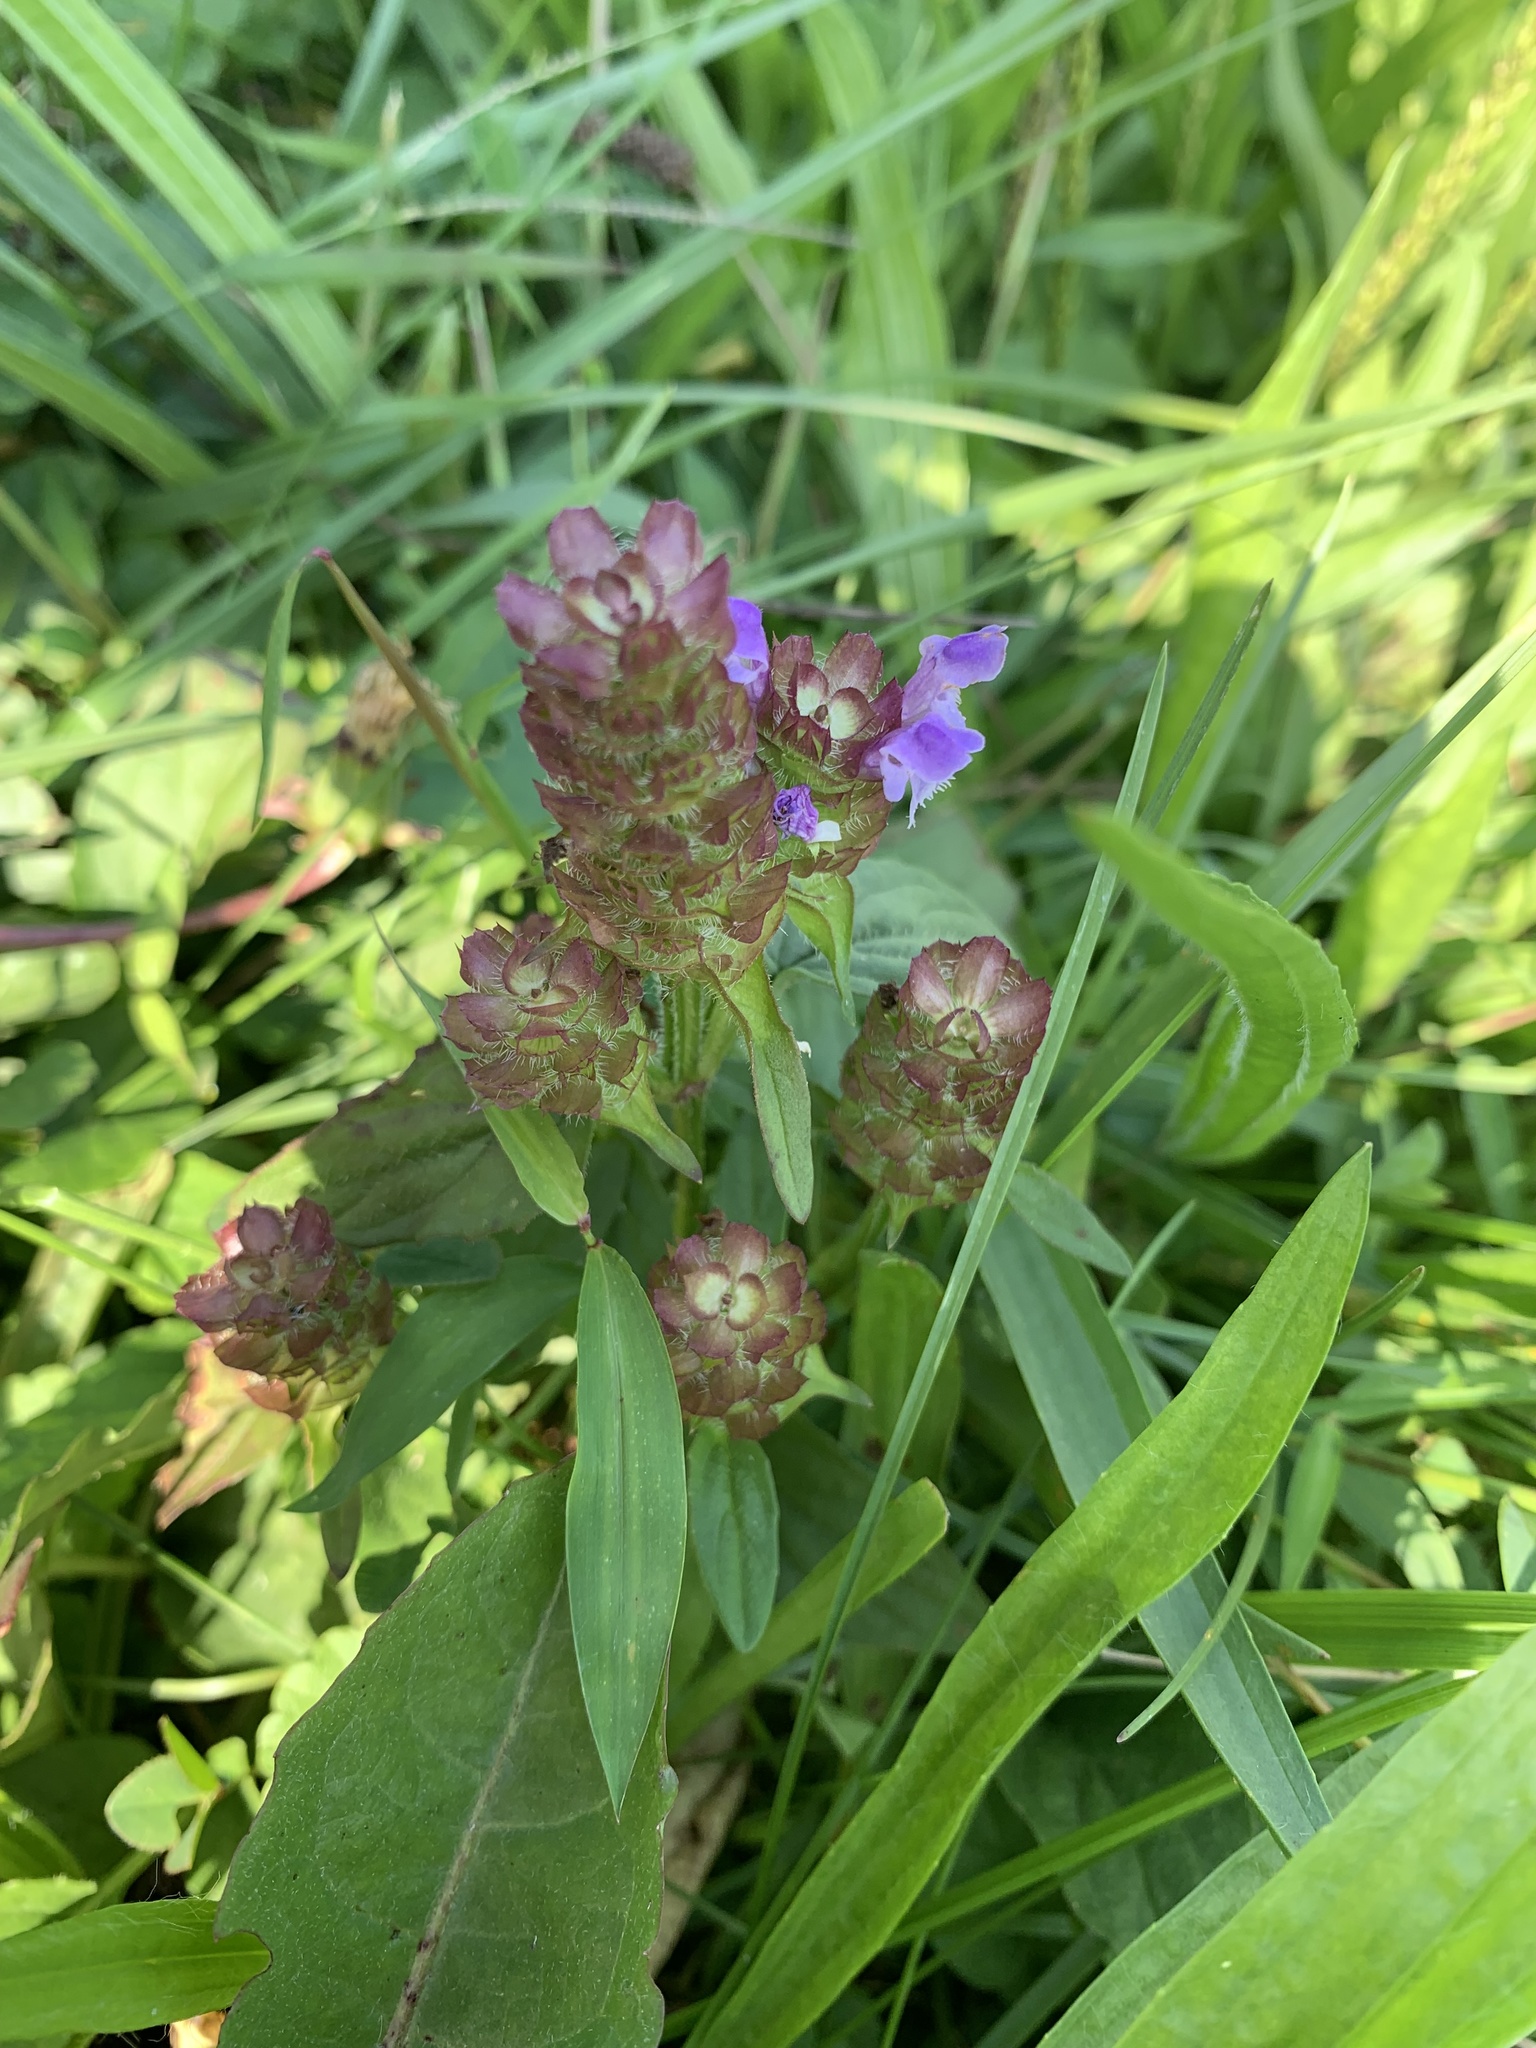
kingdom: Plantae
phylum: Tracheophyta
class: Magnoliopsida
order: Lamiales
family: Lamiaceae
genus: Prunella
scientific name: Prunella vulgaris
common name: Heal-all
